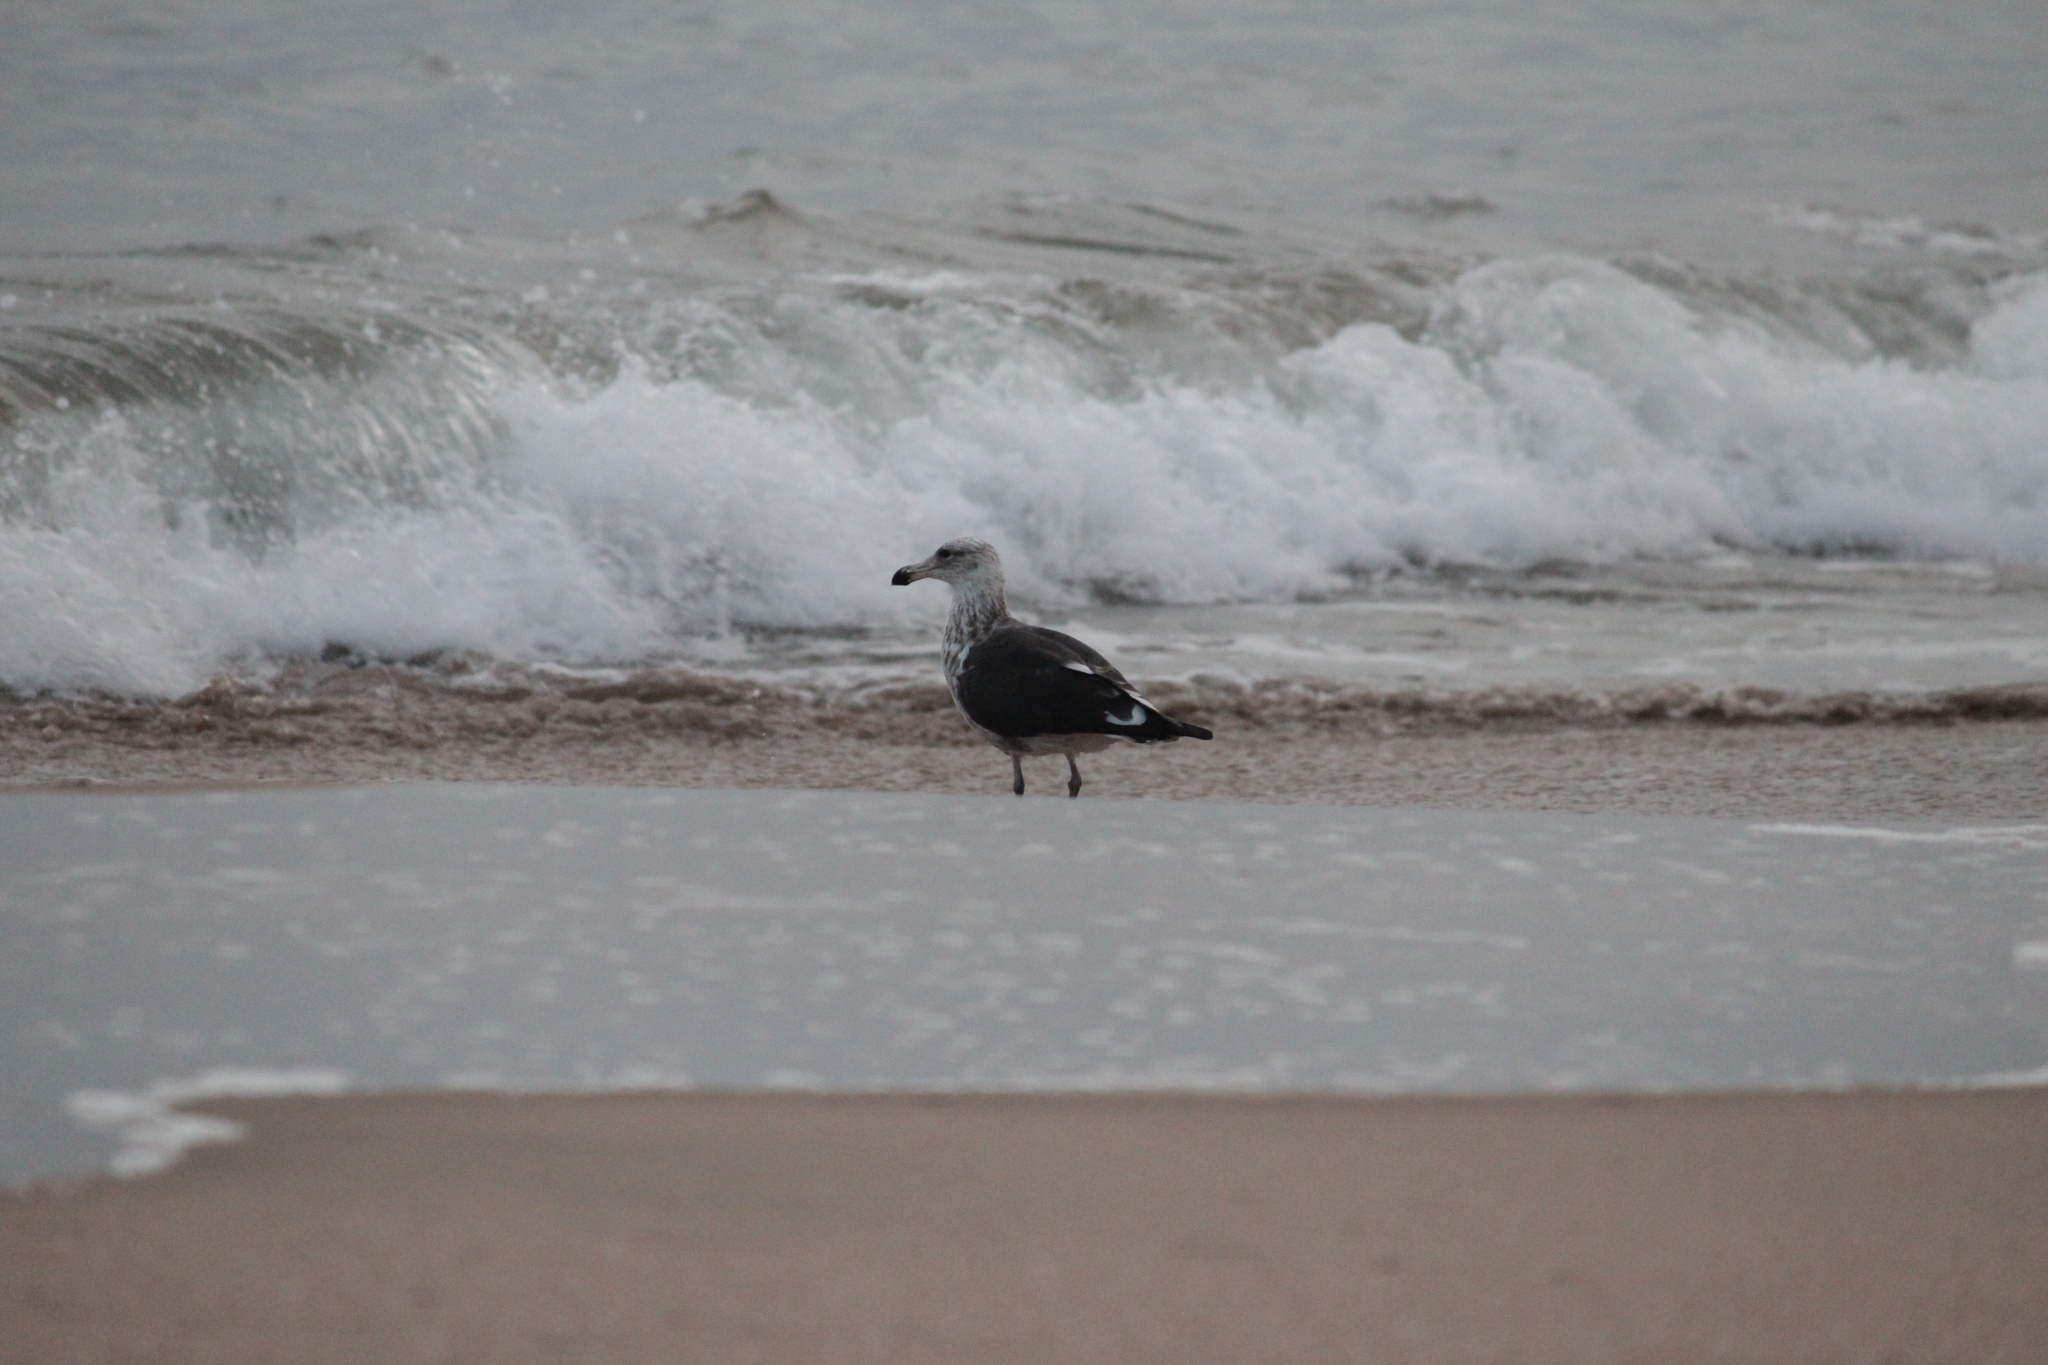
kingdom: Animalia
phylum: Chordata
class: Aves
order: Charadriiformes
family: Laridae
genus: Larus
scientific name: Larus dominicanus
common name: Kelp gull
